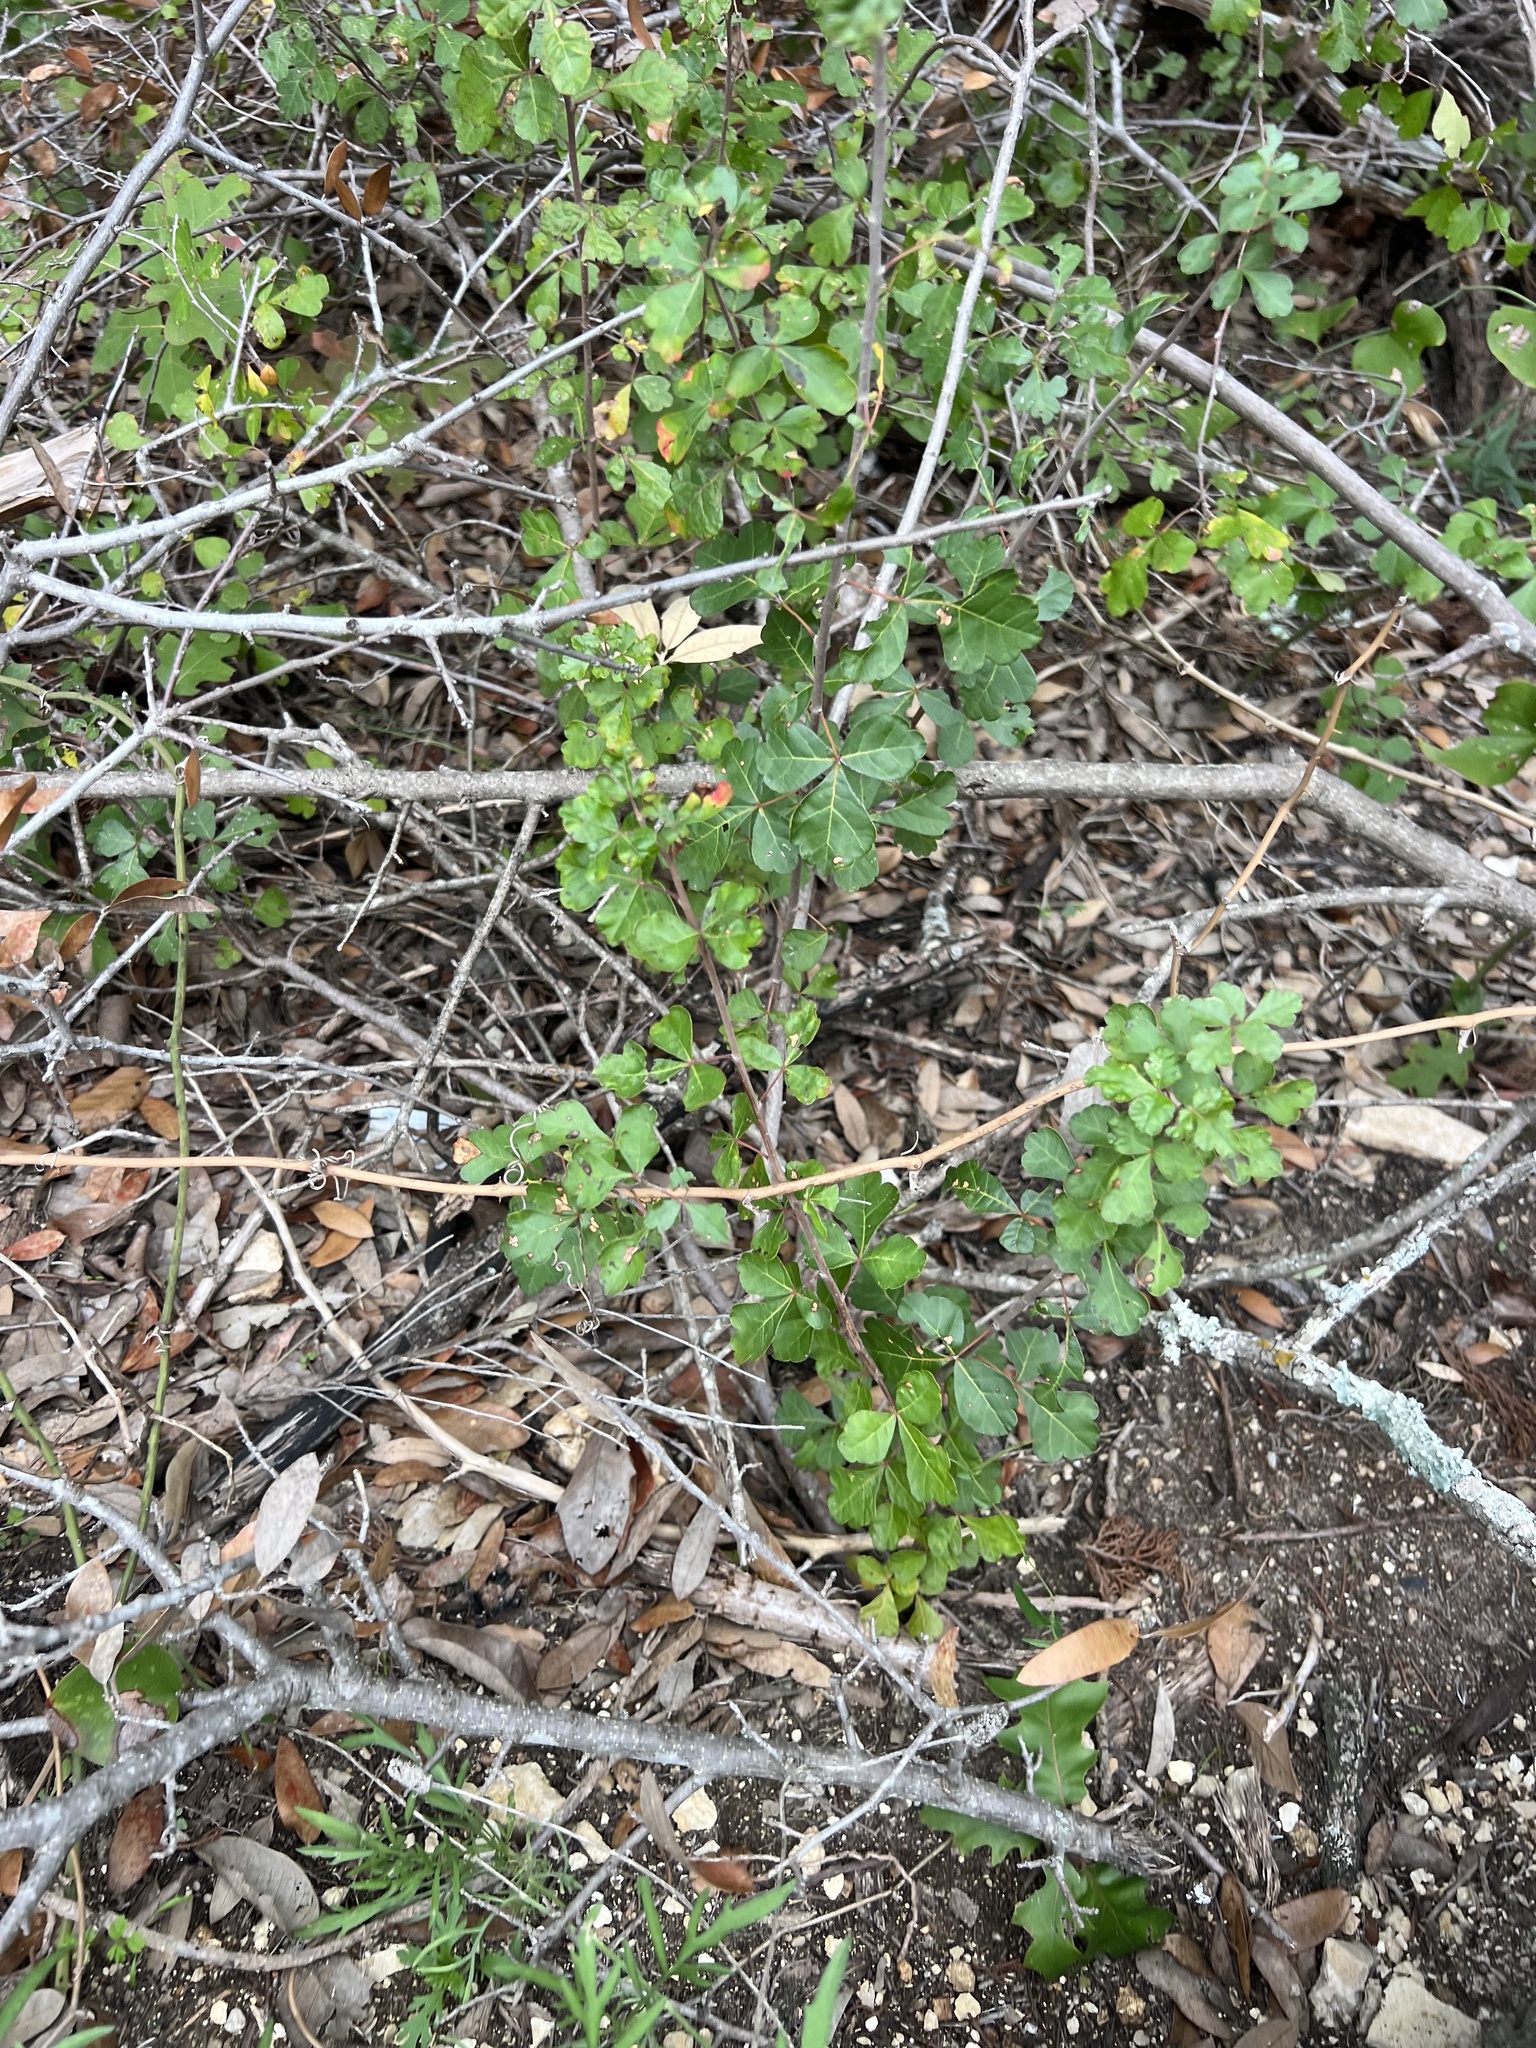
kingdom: Plantae
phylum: Tracheophyta
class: Magnoliopsida
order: Sapindales
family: Anacardiaceae
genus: Rhus
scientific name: Rhus aromatica
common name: Aromatic sumac
